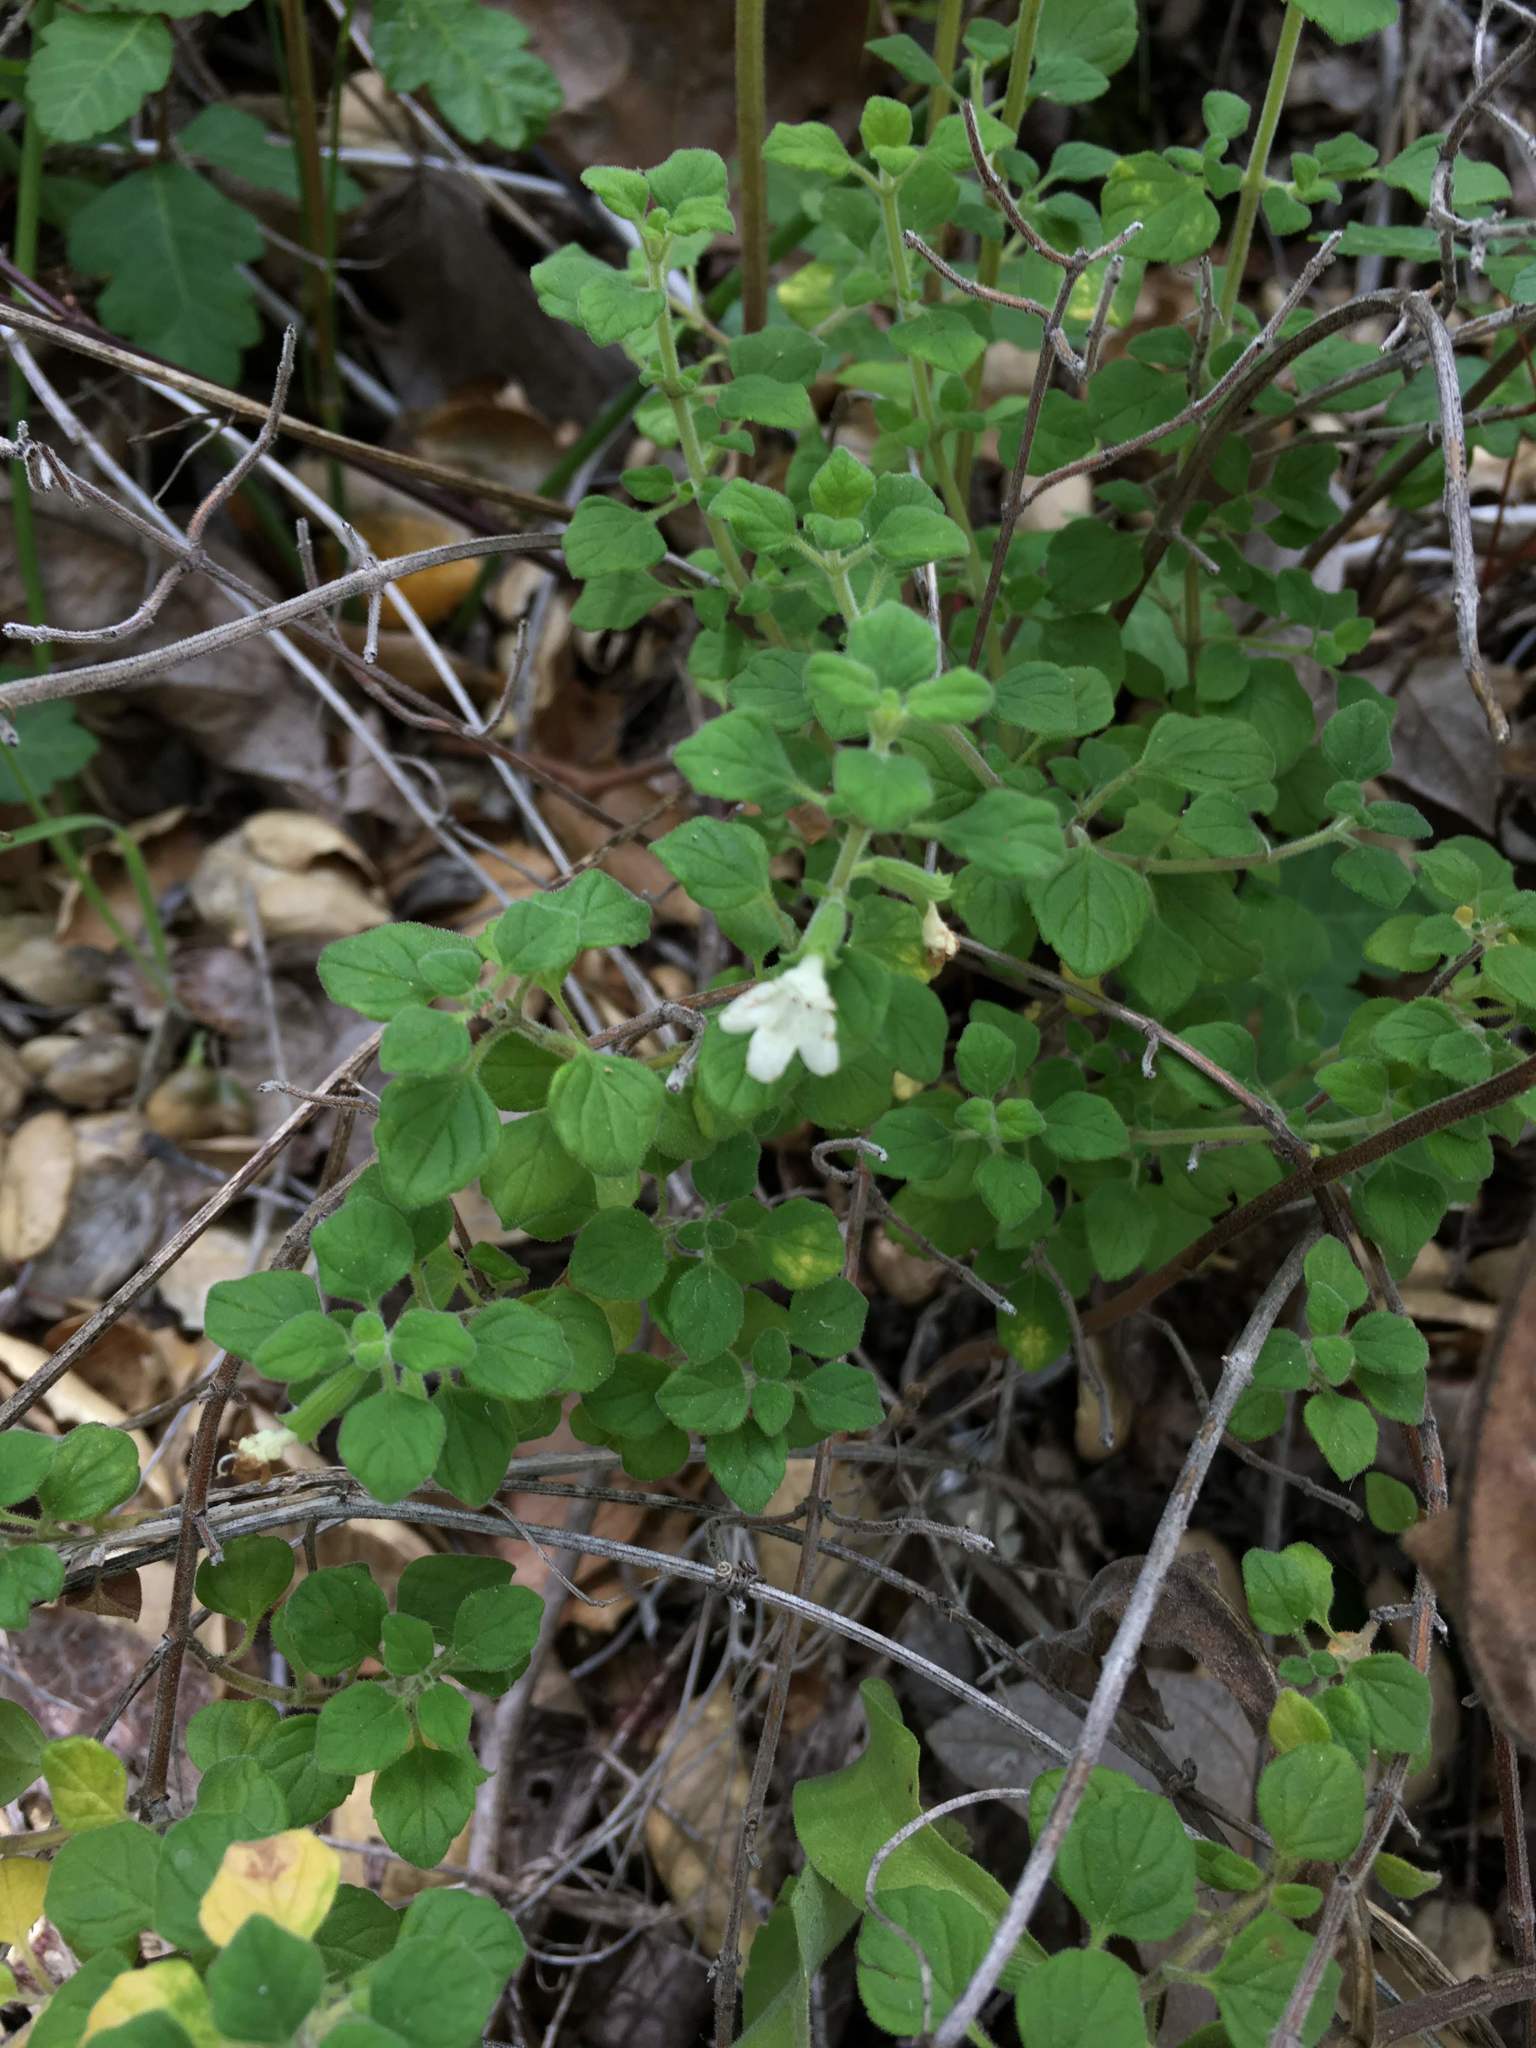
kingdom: Plantae
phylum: Tracheophyta
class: Magnoliopsida
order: Lamiales
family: Lamiaceae
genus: Clinopodium
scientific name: Clinopodium chandleri
